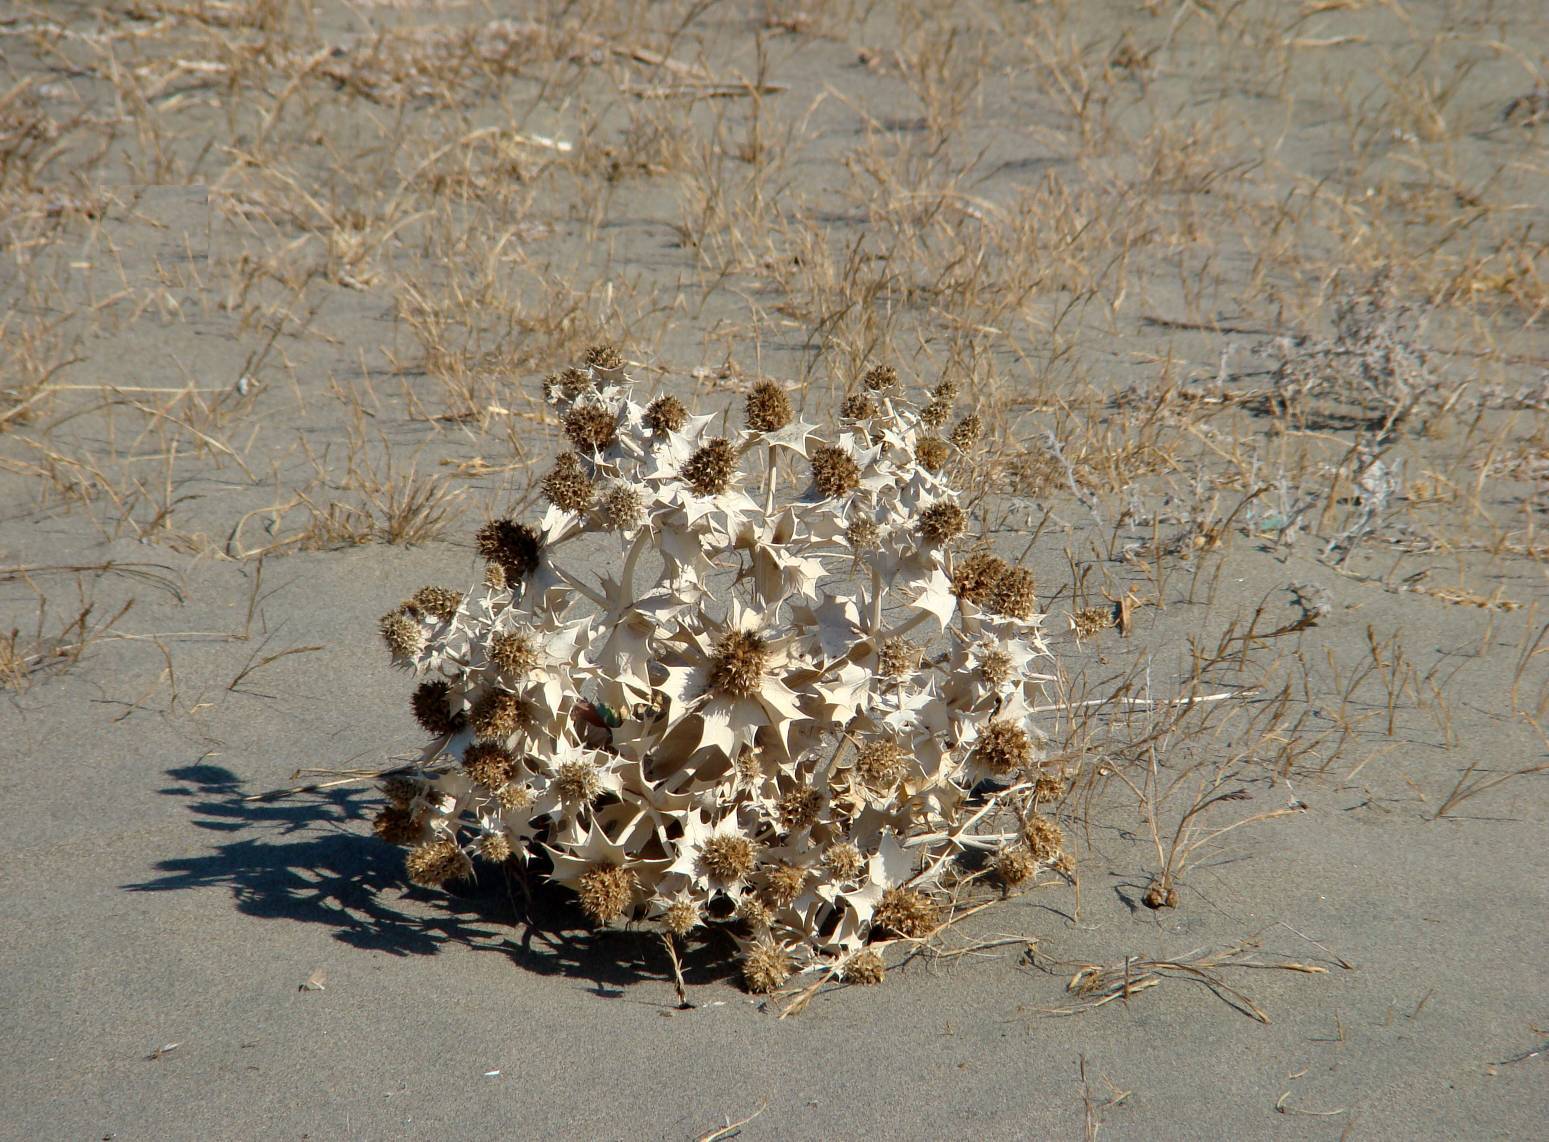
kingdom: Plantae
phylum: Tracheophyta
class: Magnoliopsida
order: Apiales
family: Apiaceae
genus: Eryngium
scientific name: Eryngium maritimum
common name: Sea-holly
